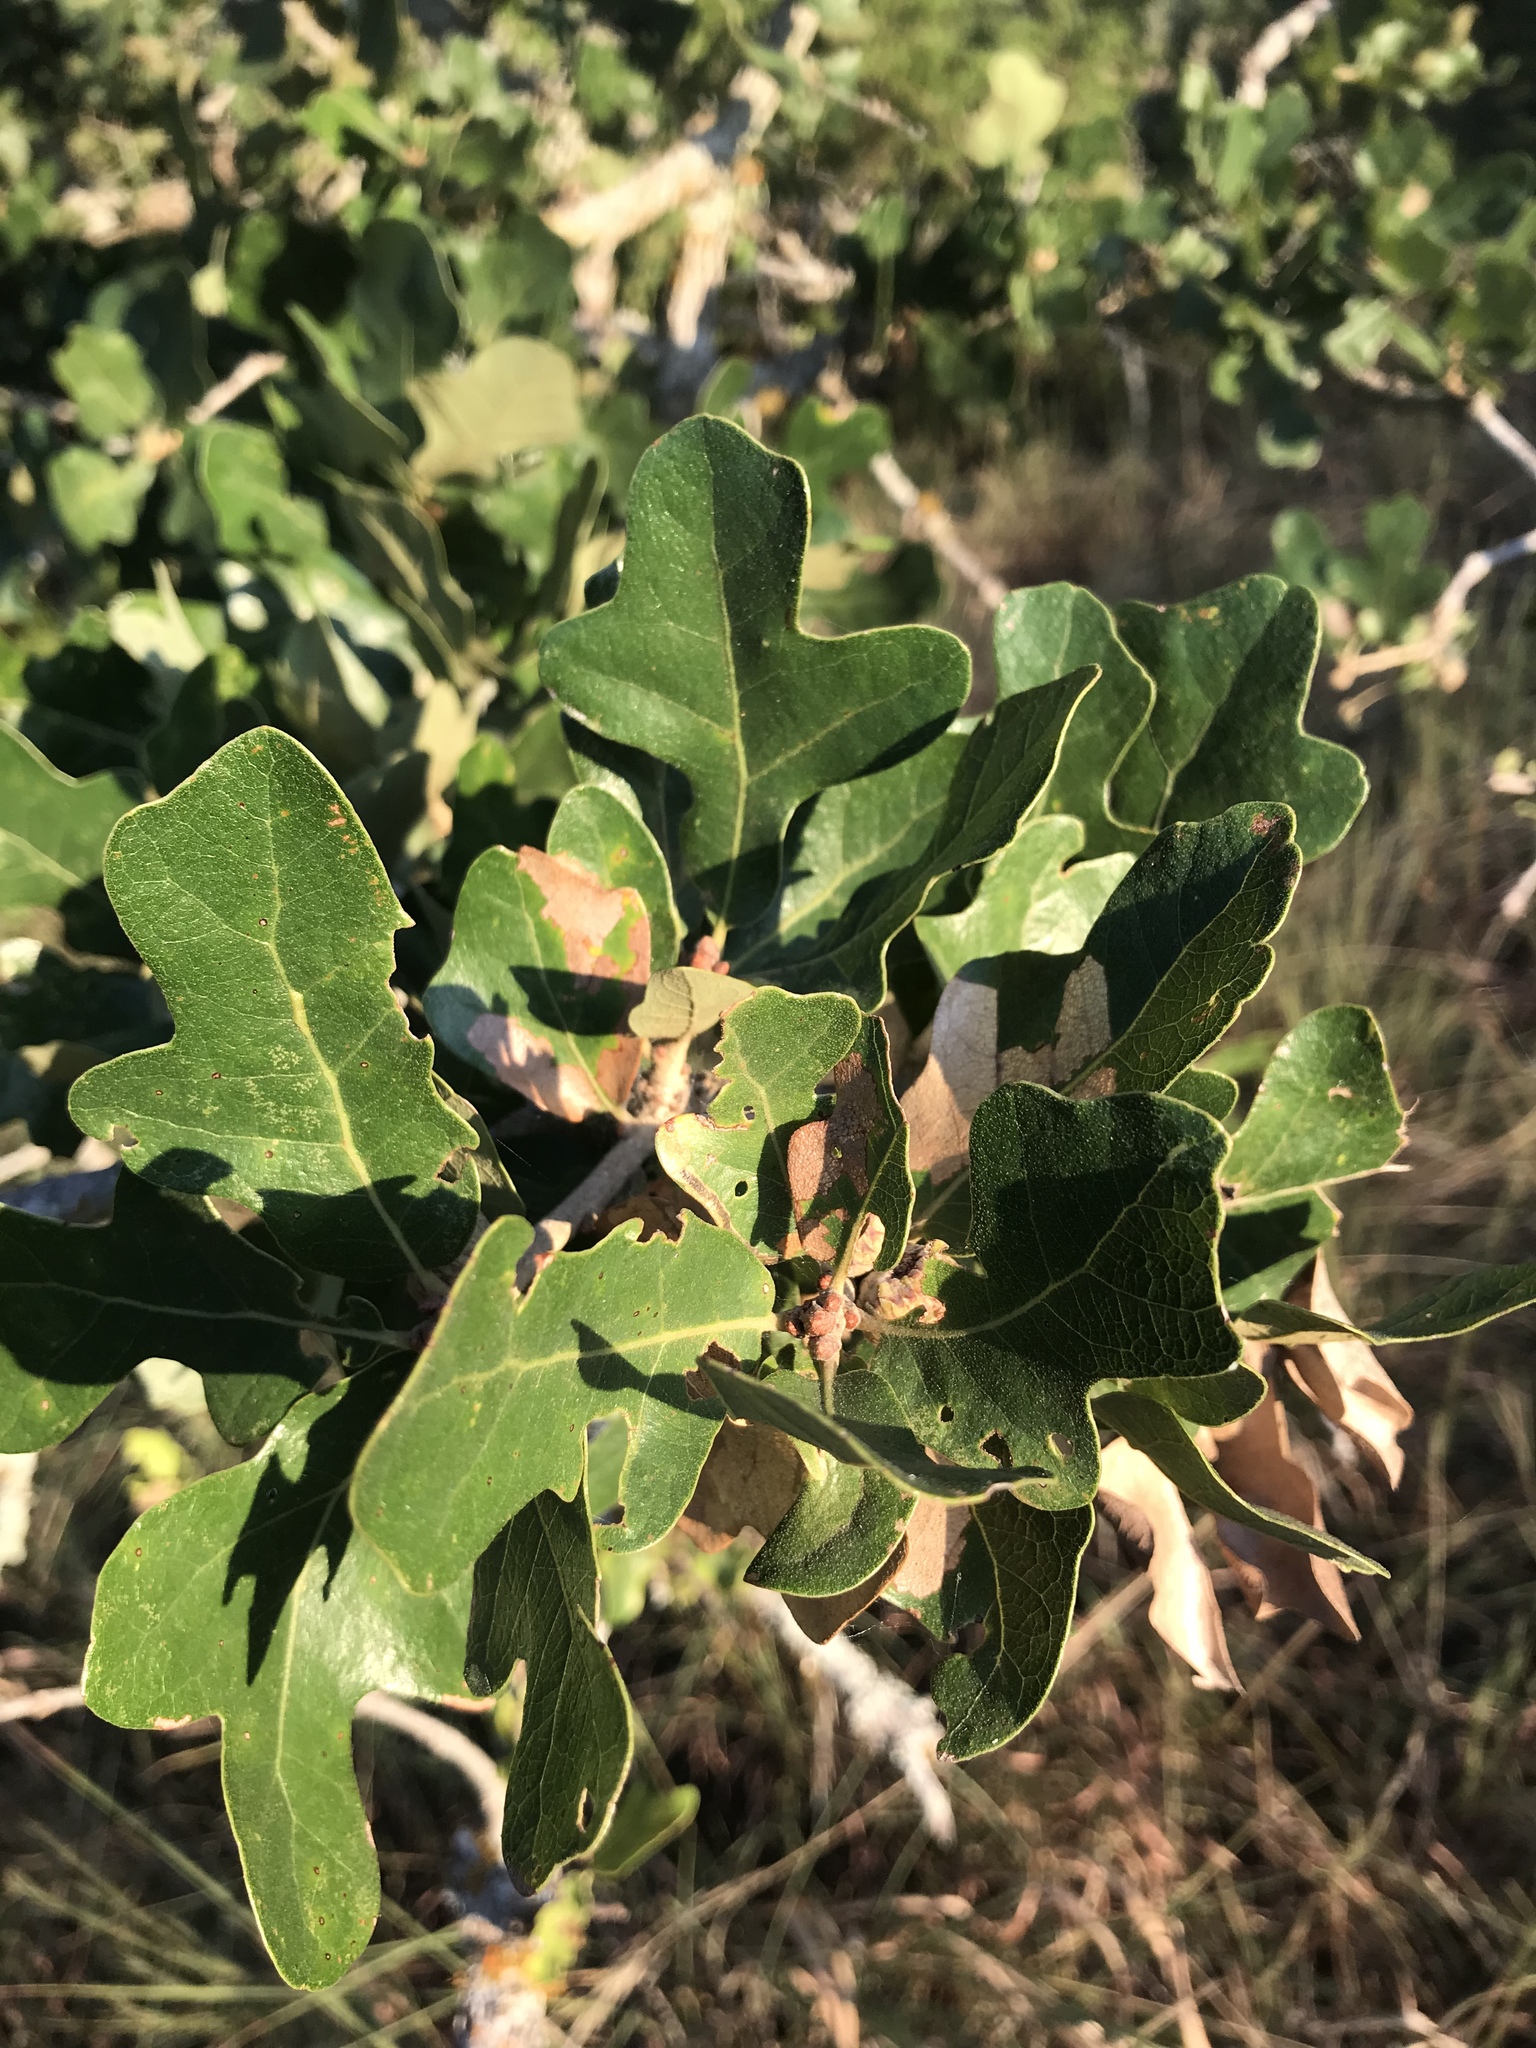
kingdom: Plantae
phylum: Tracheophyta
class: Magnoliopsida
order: Fagales
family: Fagaceae
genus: Quercus
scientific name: Quercus stellata
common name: Post oak
